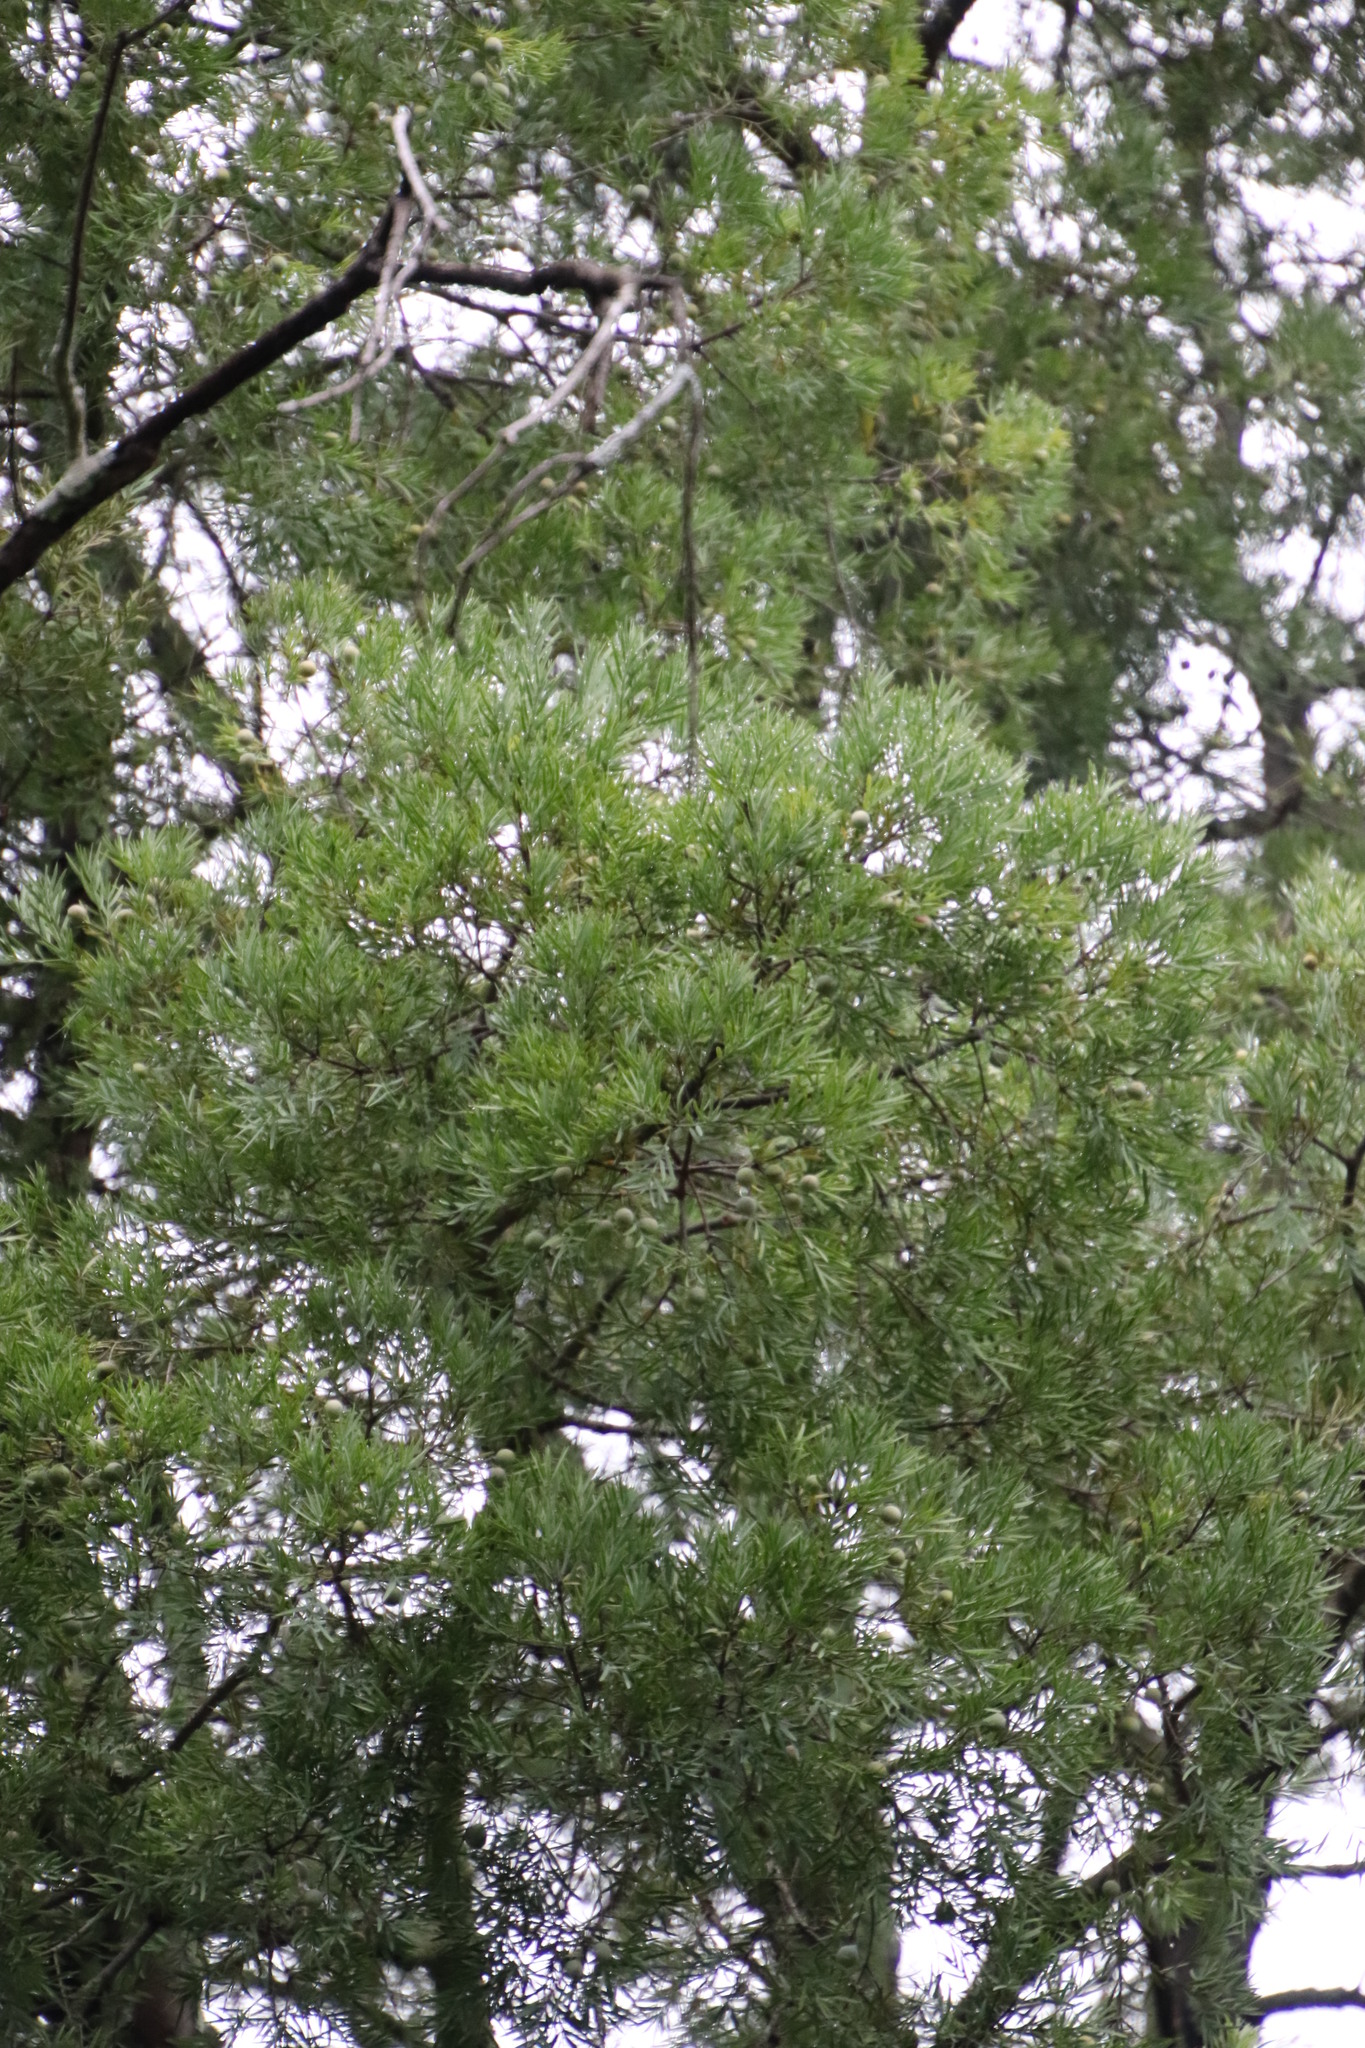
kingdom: Plantae
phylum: Tracheophyta
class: Pinopsida
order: Pinales
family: Podocarpaceae
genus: Afrocarpus
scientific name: Afrocarpus falcatus
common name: Bastard yellowwood
